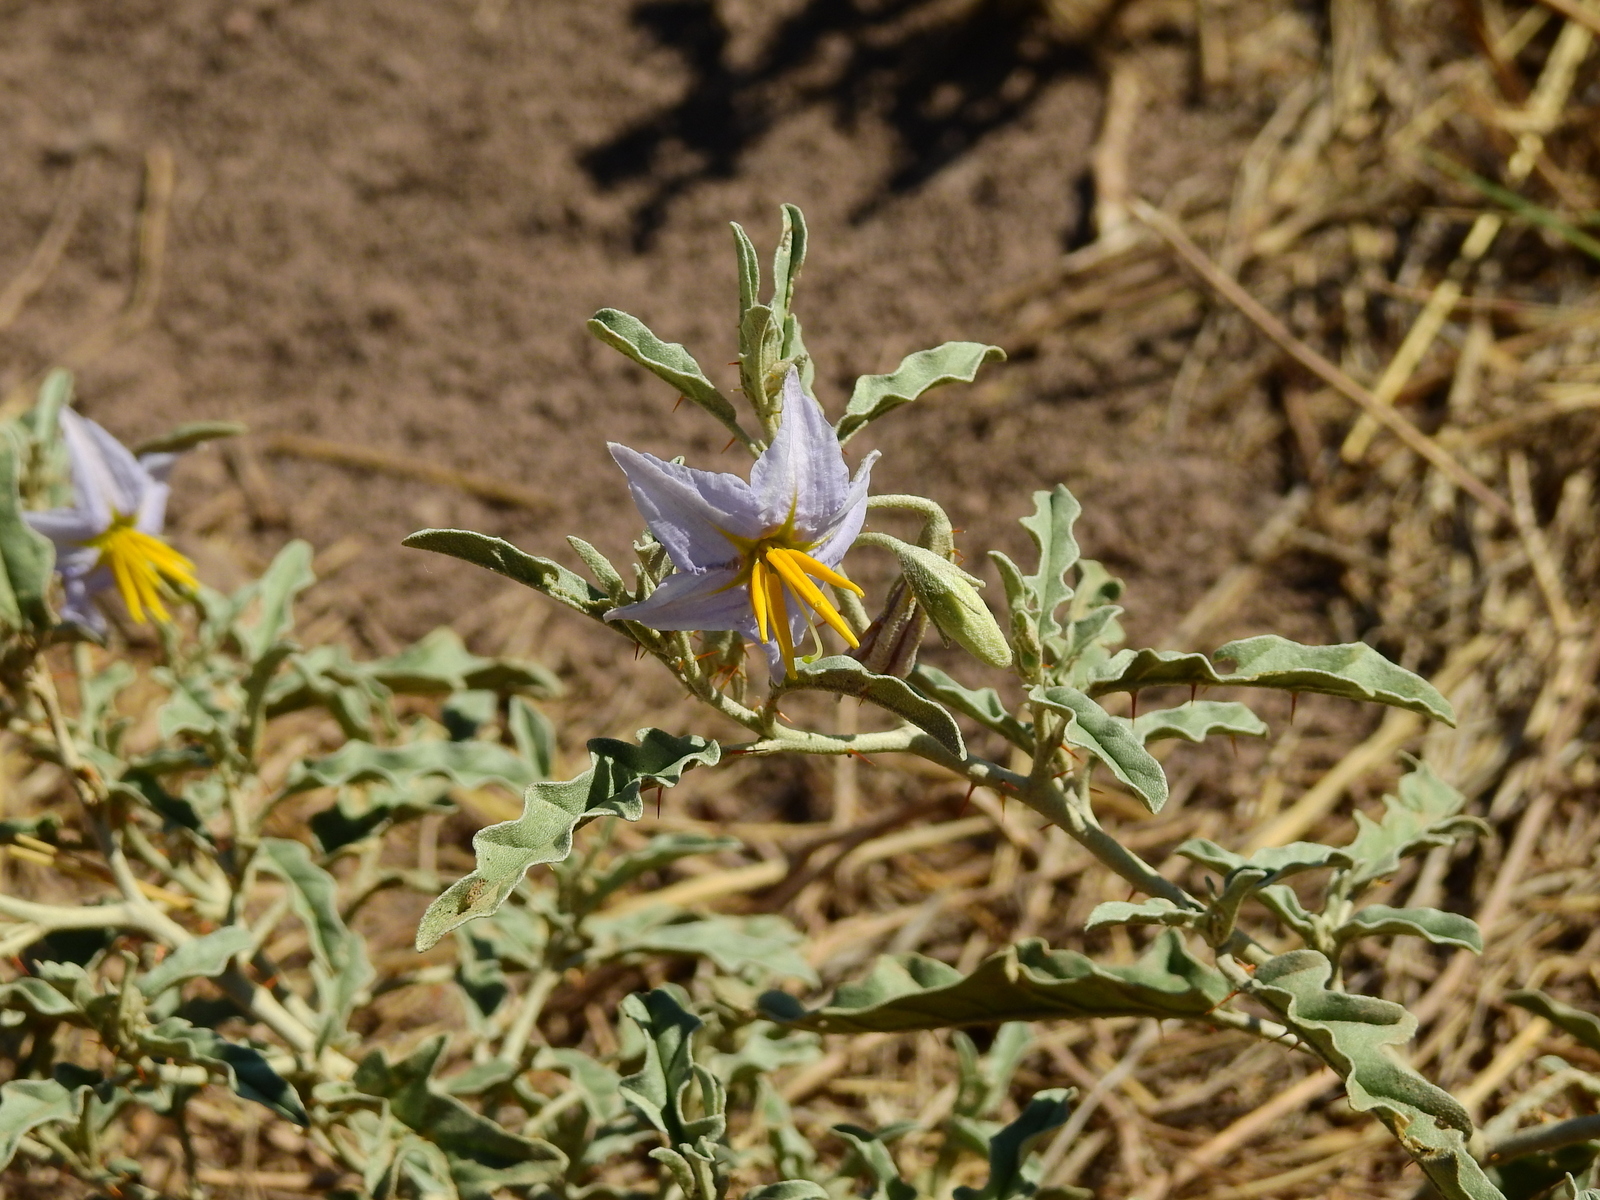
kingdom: Plantae
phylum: Tracheophyta
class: Magnoliopsida
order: Solanales
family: Solanaceae
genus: Solanum
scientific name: Solanum elaeagnifolium
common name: Silverleaf nightshade
